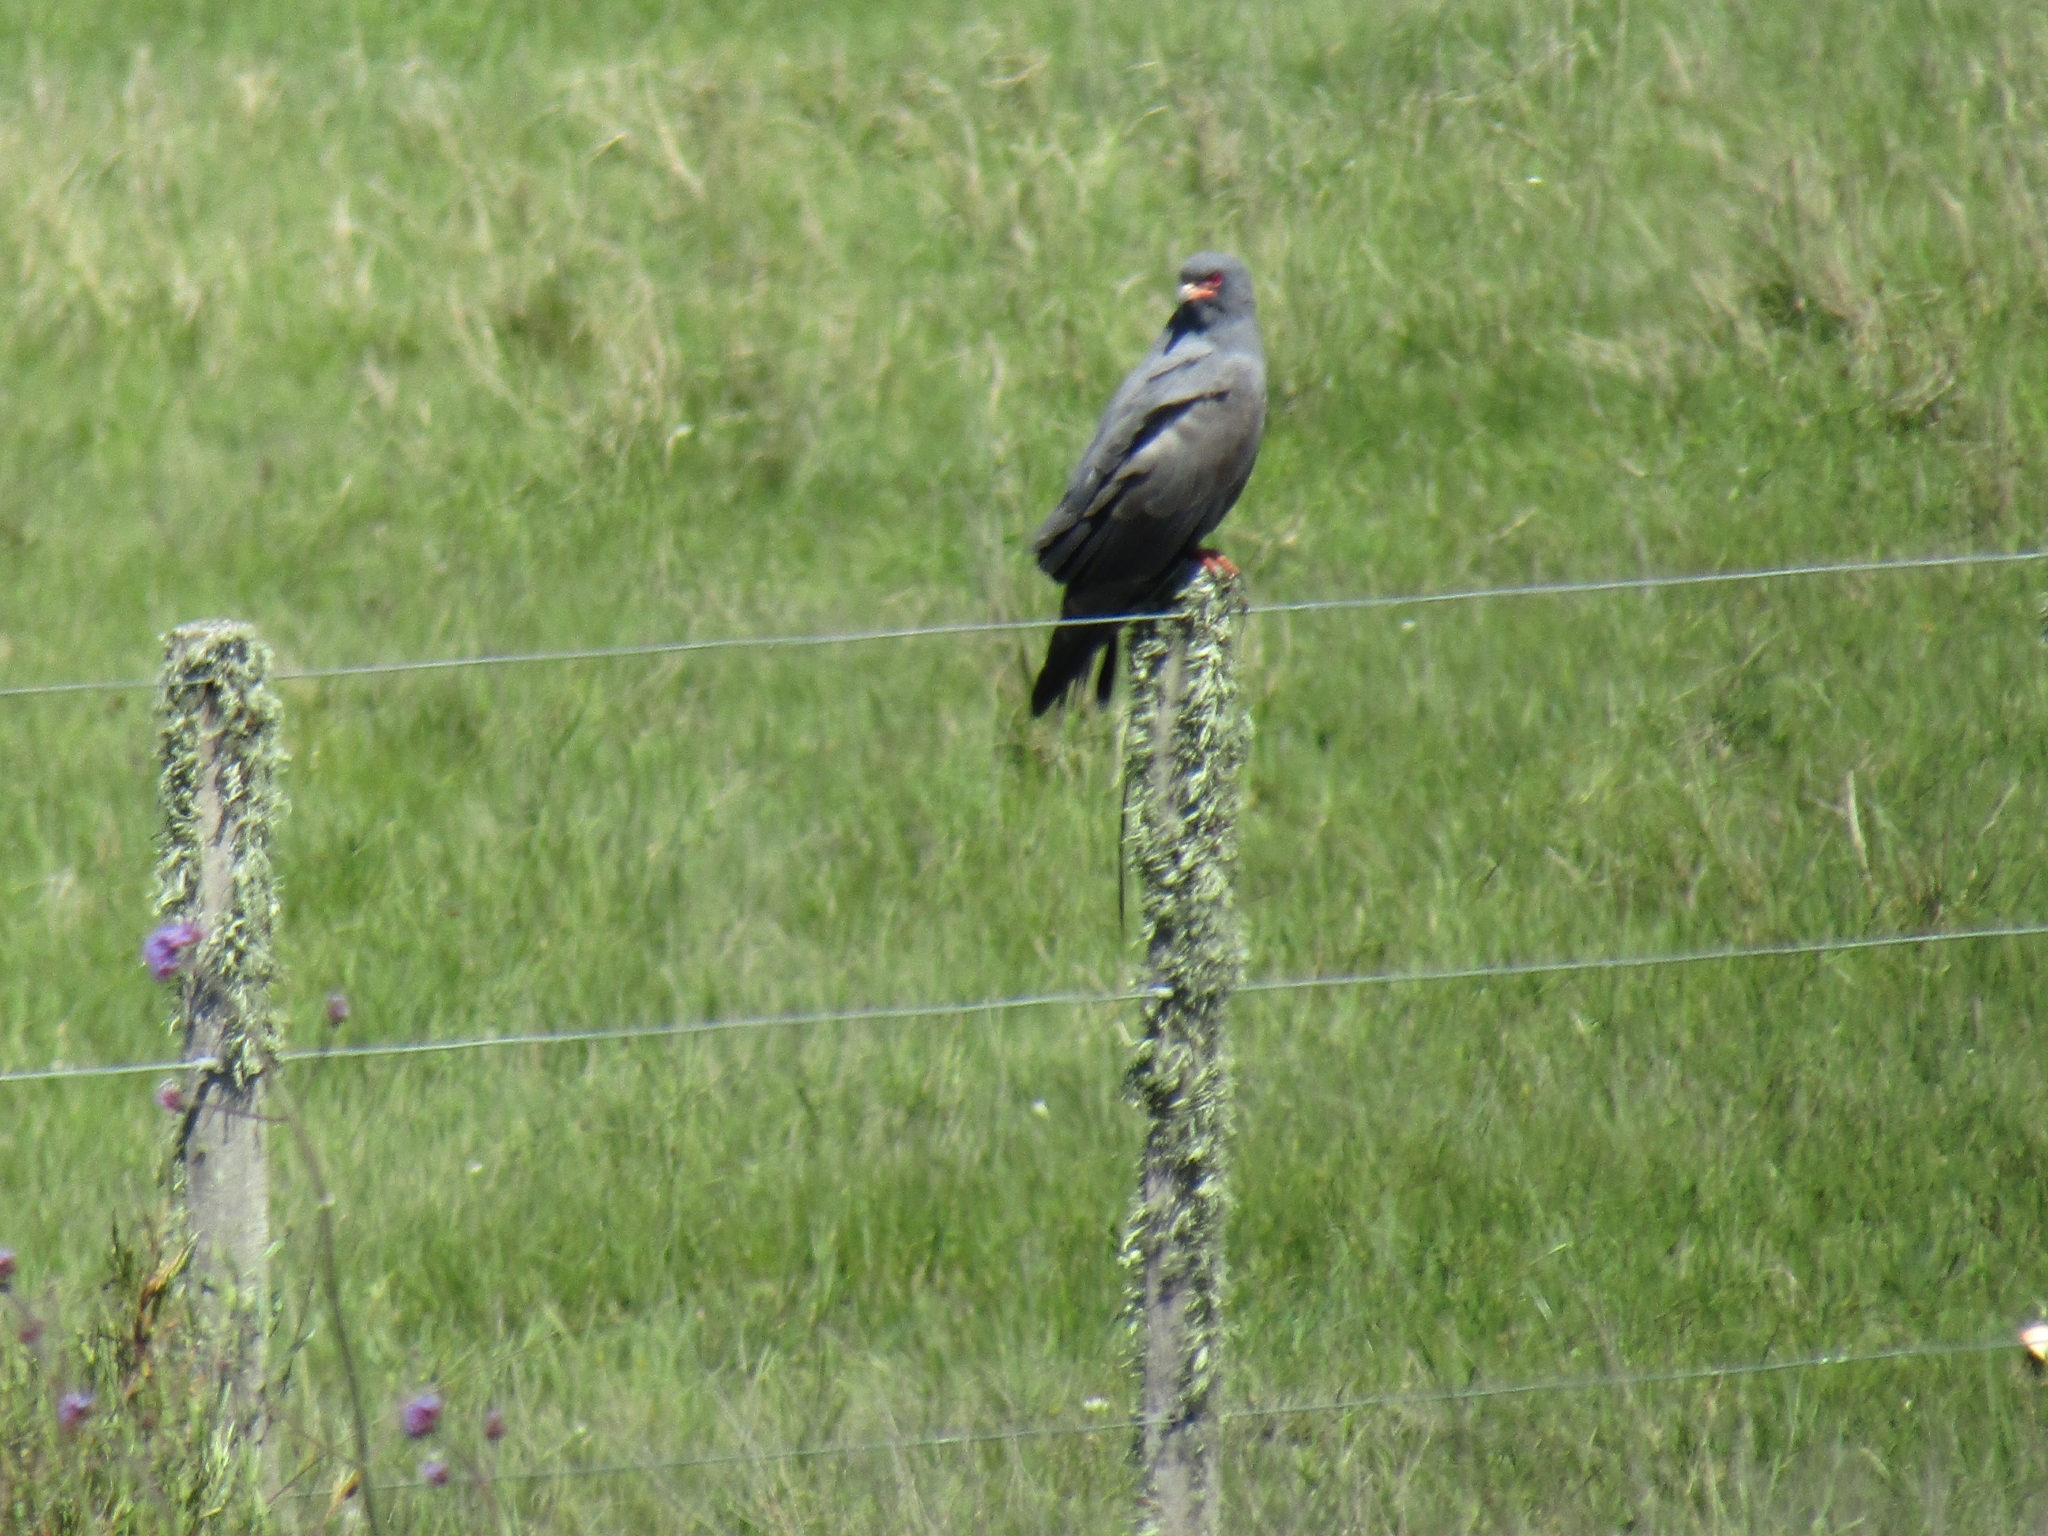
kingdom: Animalia
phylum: Chordata
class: Aves
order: Accipitriformes
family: Accipitridae
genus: Rostrhamus
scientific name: Rostrhamus sociabilis
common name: Snail kite
